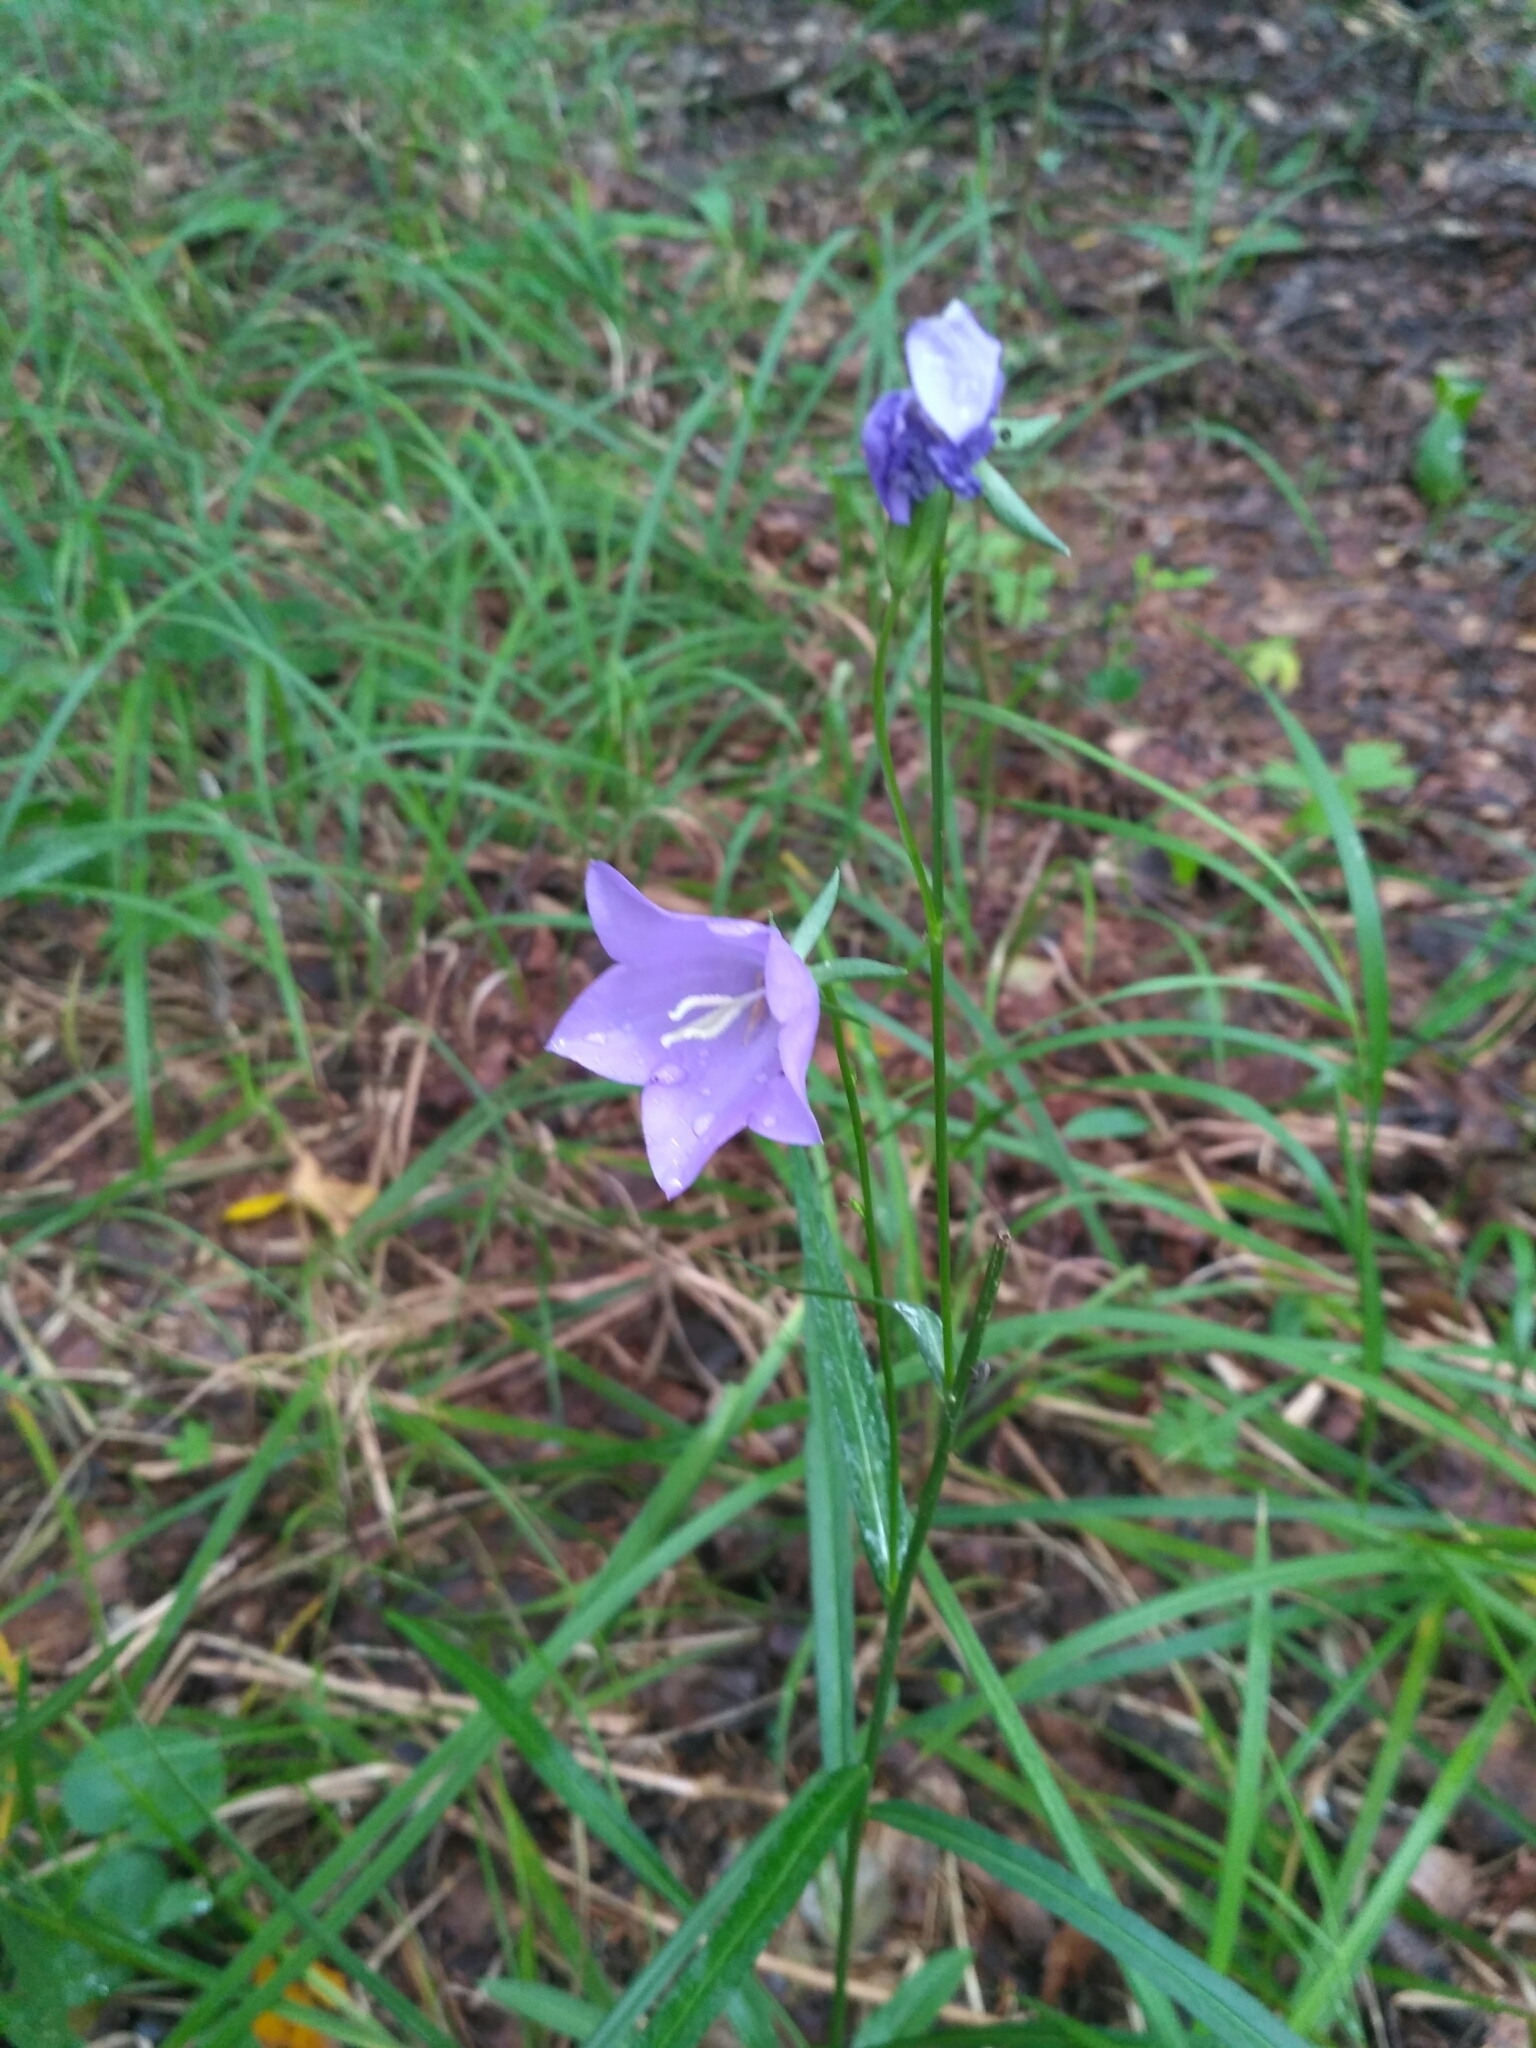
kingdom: Plantae
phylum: Tracheophyta
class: Magnoliopsida
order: Asterales
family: Campanulaceae
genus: Campanula
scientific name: Campanula persicifolia
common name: Peach-leaved bellflower
